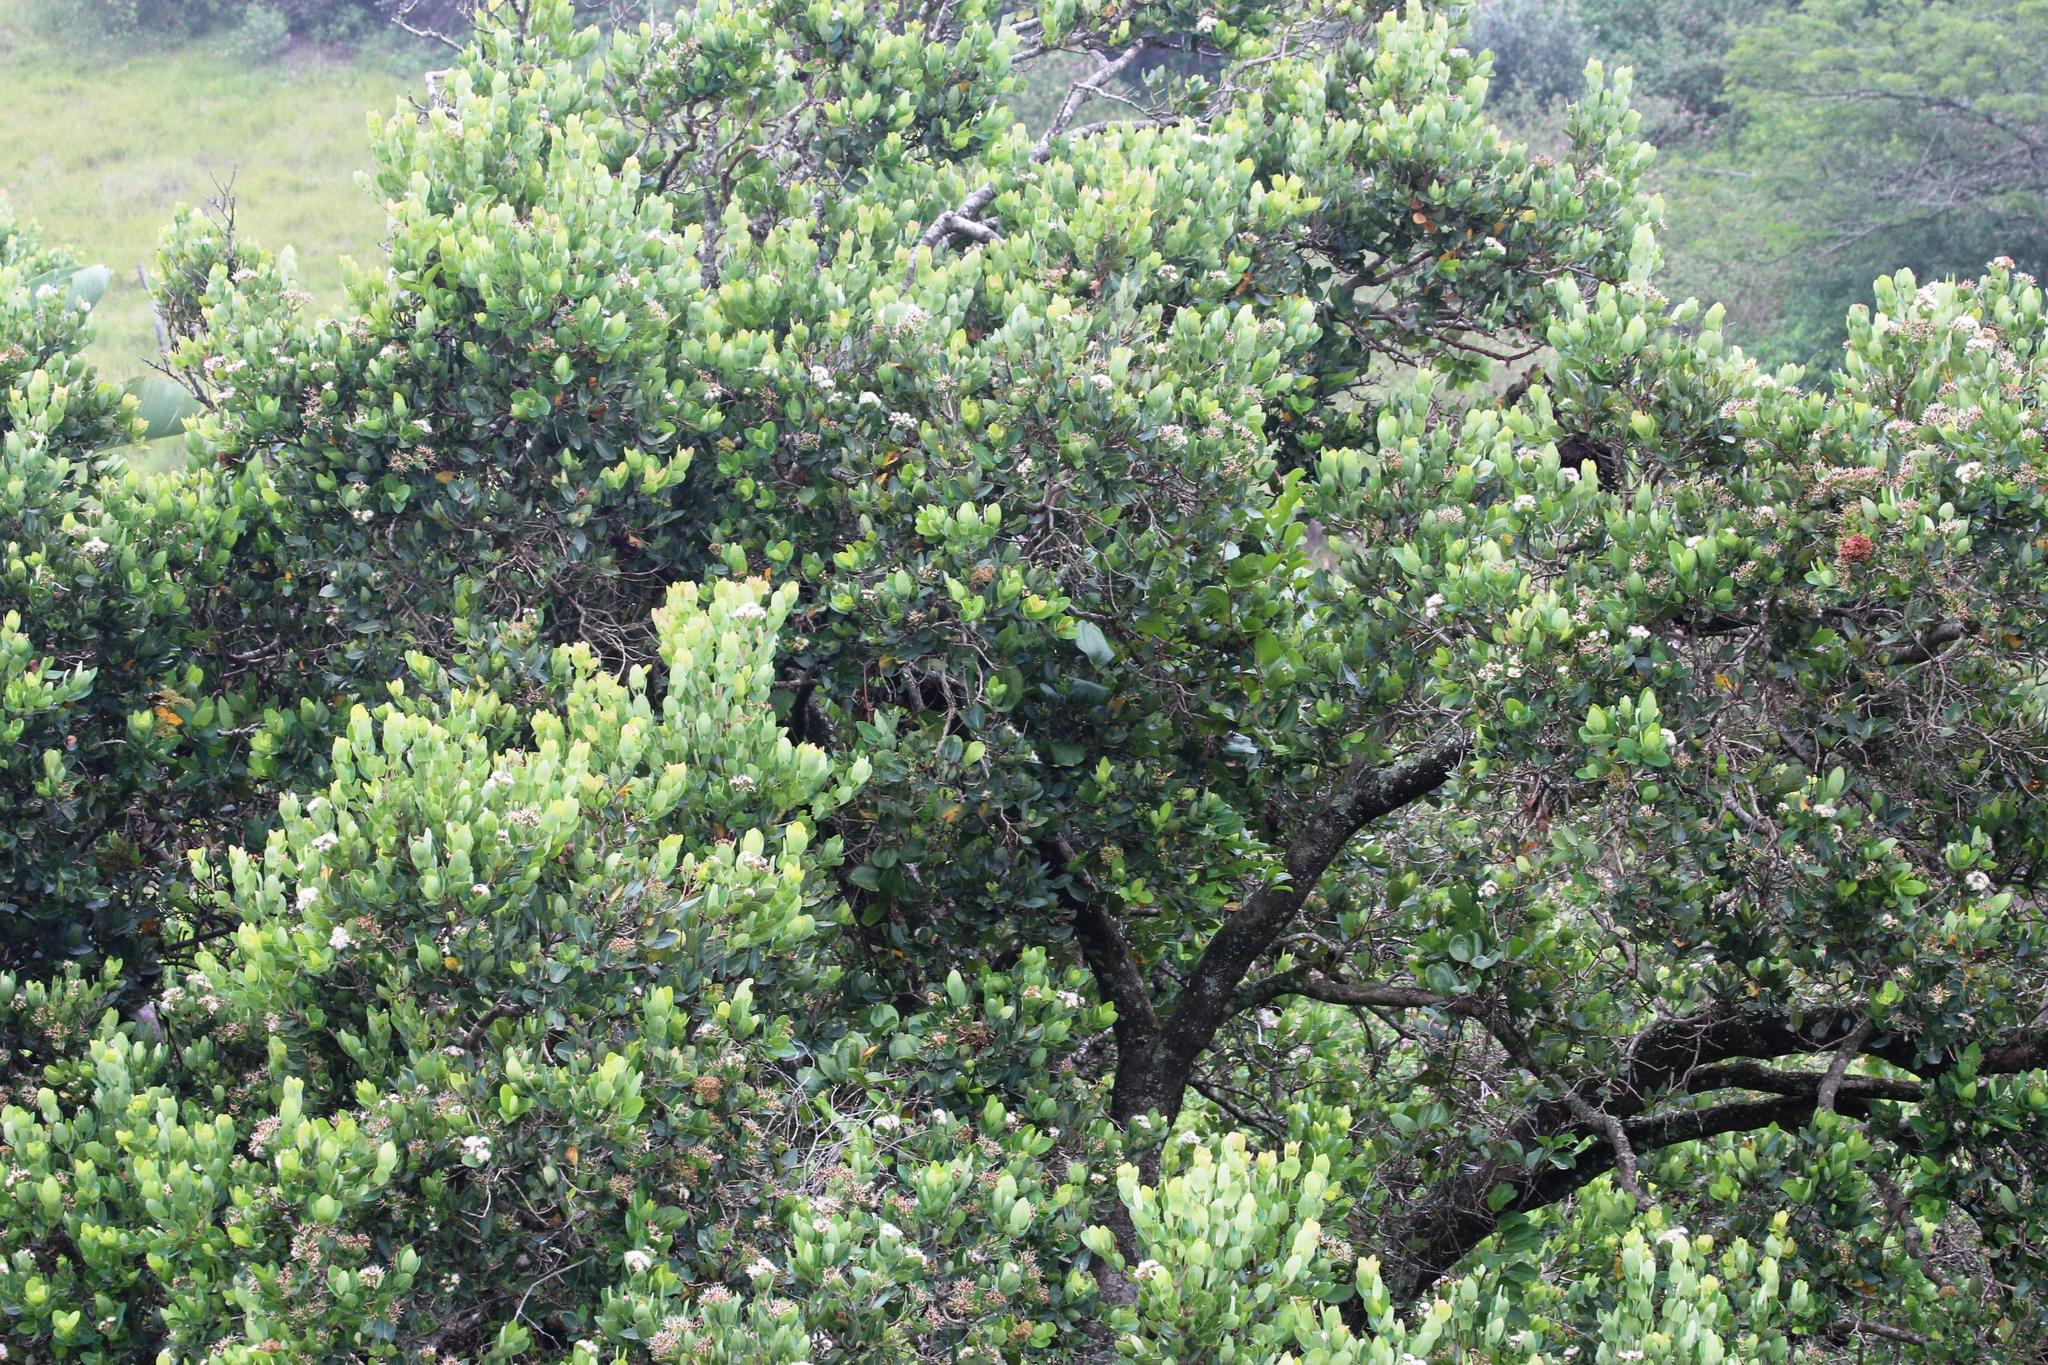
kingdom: Plantae
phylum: Tracheophyta
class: Magnoliopsida
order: Myrtales
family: Myrtaceae
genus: Syzygium
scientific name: Syzygium cordatum
